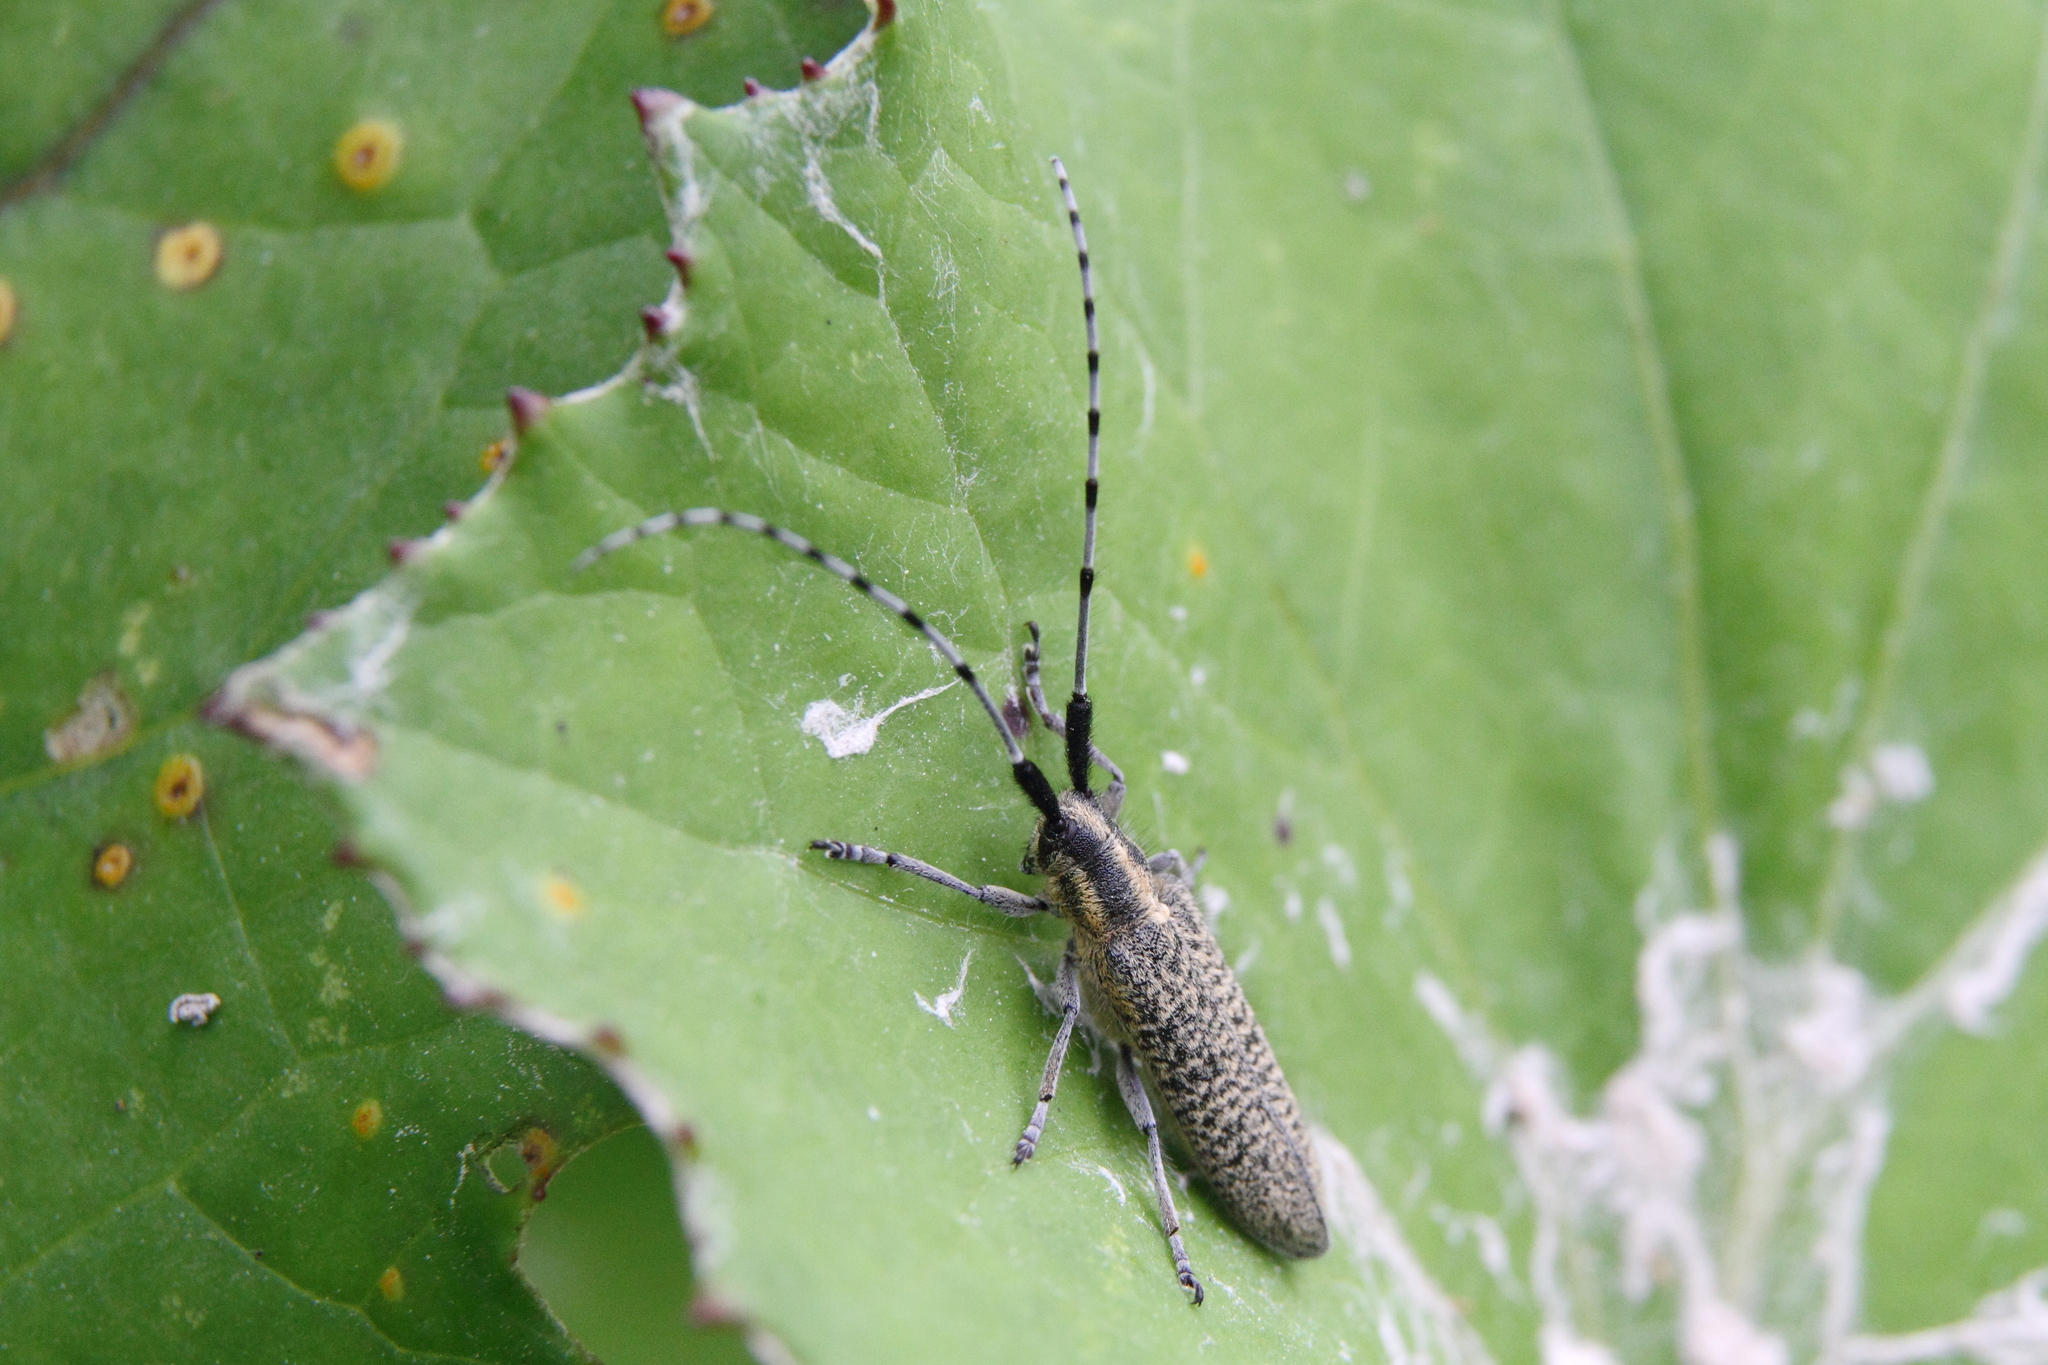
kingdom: Animalia
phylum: Arthropoda
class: Insecta
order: Coleoptera
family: Cerambycidae
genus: Agapanthia
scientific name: Agapanthia villosoviridescens
